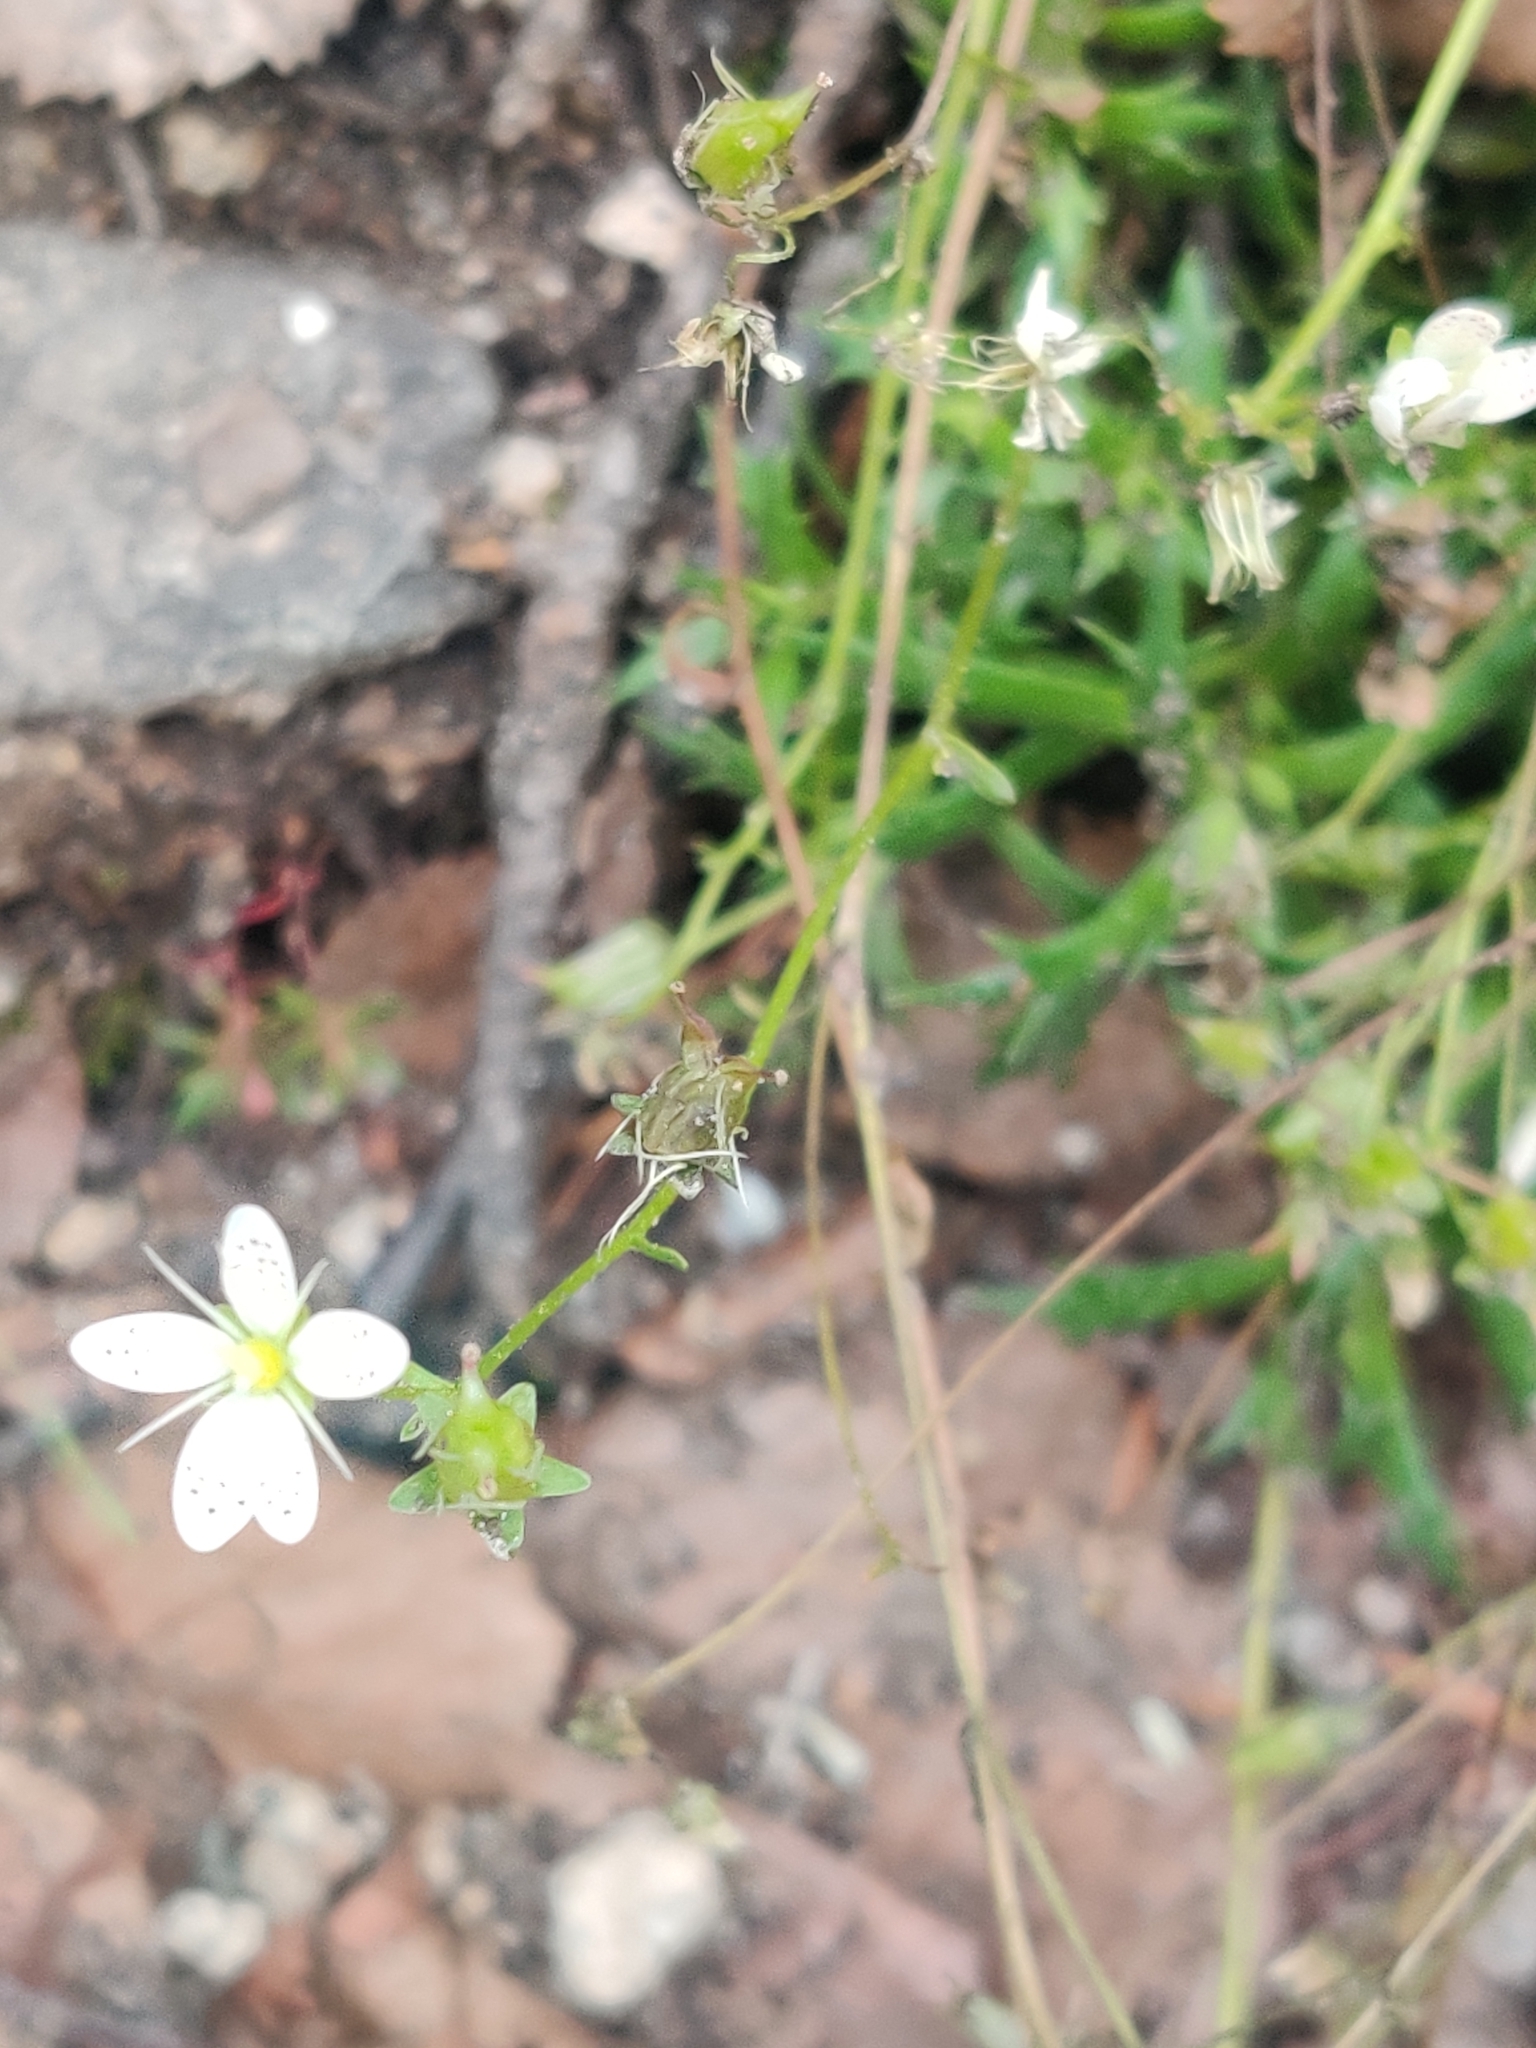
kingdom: Plantae
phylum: Tracheophyta
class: Magnoliopsida
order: Saxifragales
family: Saxifragaceae
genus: Saxifraga
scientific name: Saxifraga bronchialis
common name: Matted saxifrage
